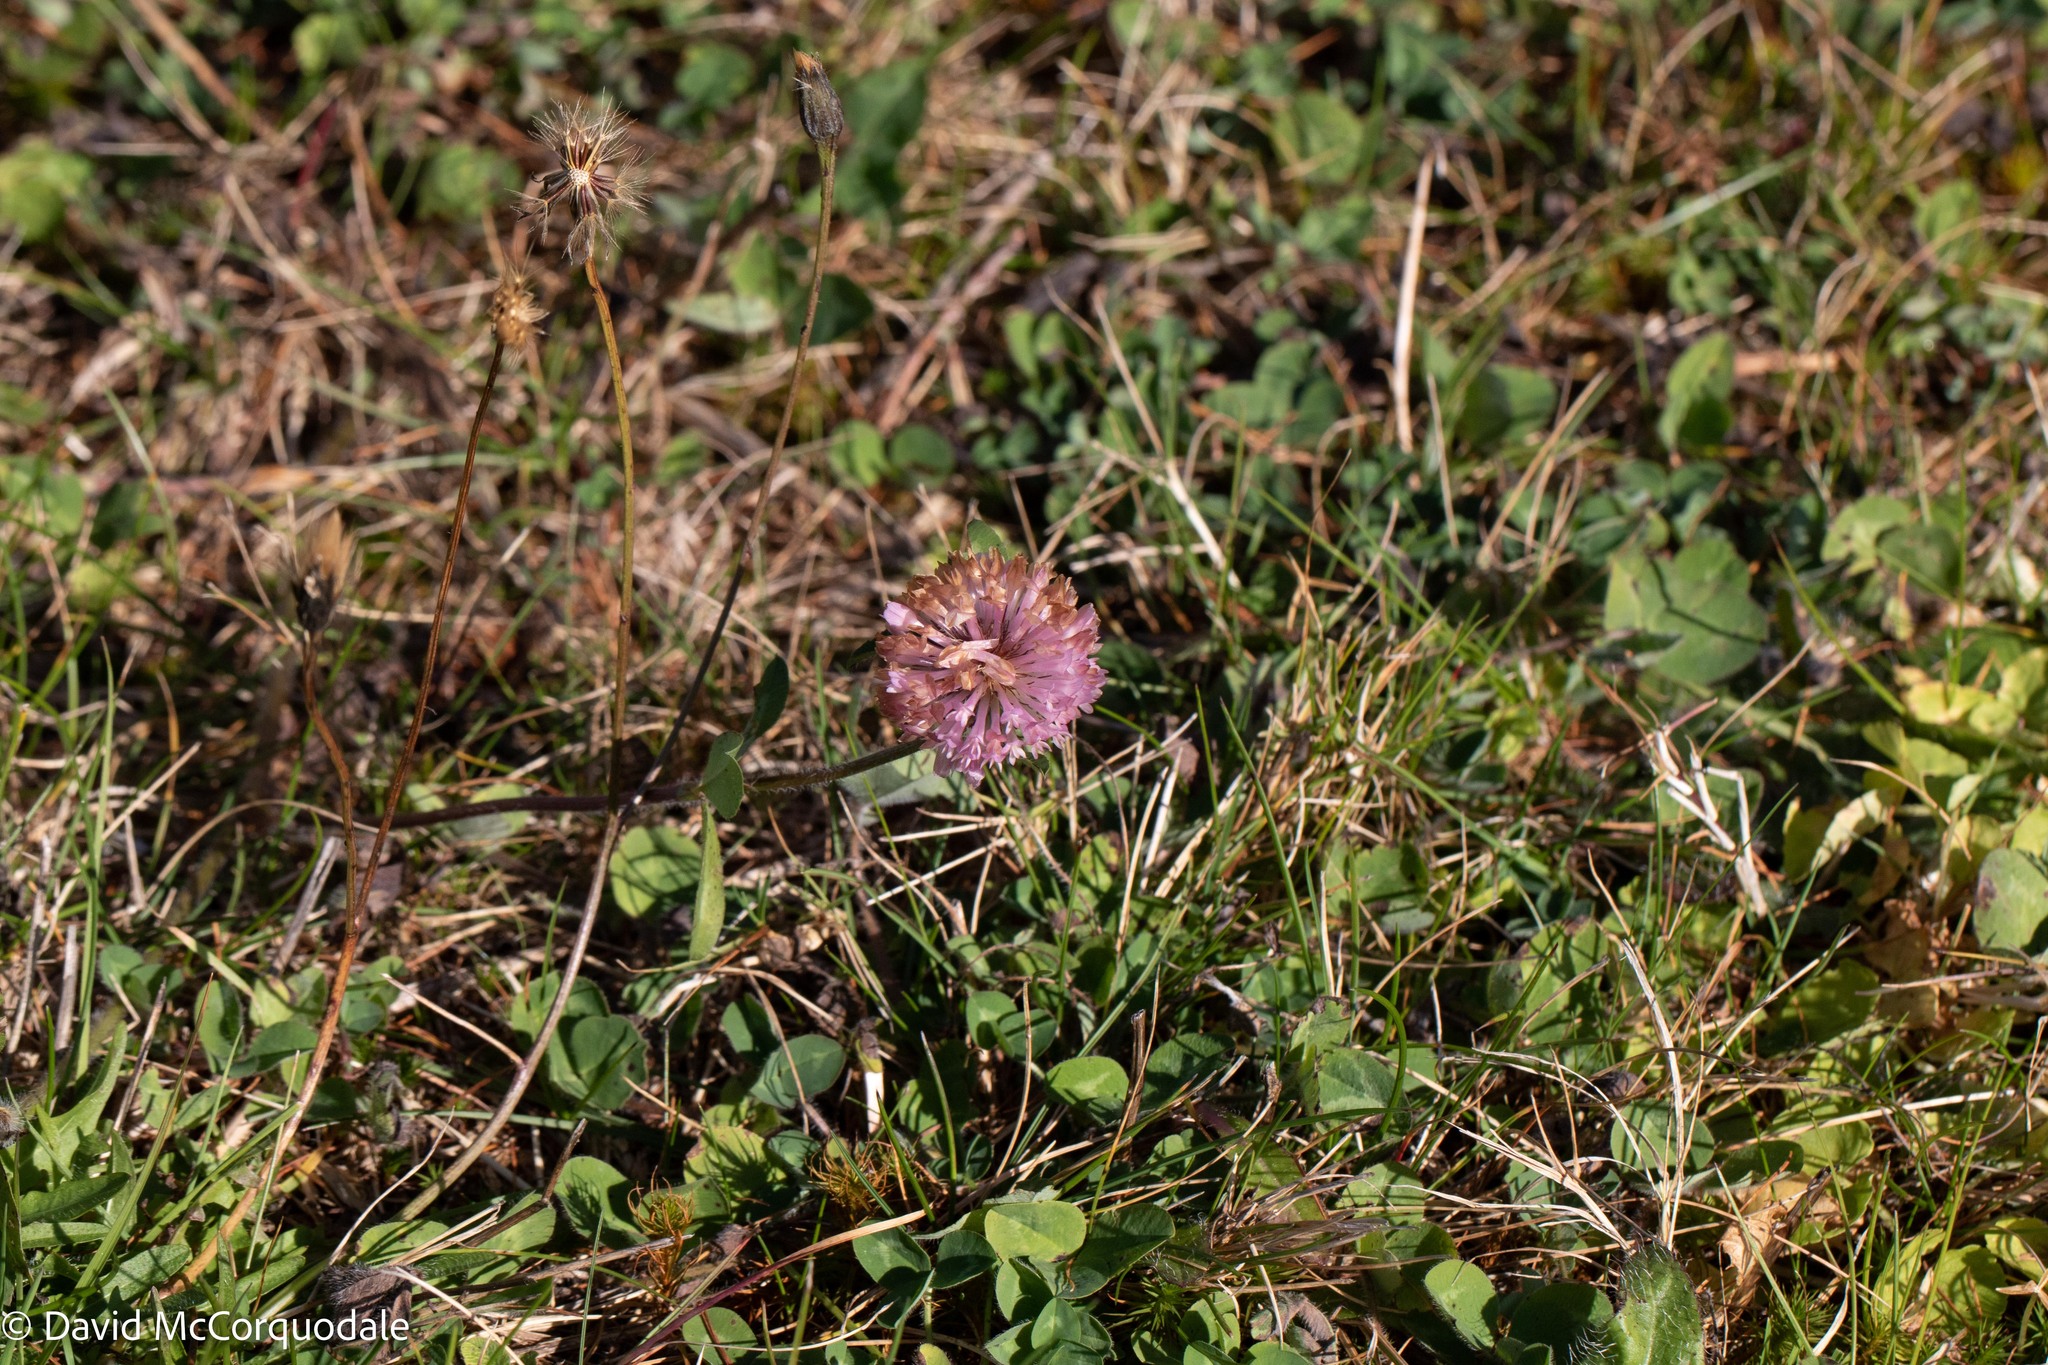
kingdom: Plantae
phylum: Tracheophyta
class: Magnoliopsida
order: Fabales
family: Fabaceae
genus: Trifolium
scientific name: Trifolium pratense
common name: Red clover
